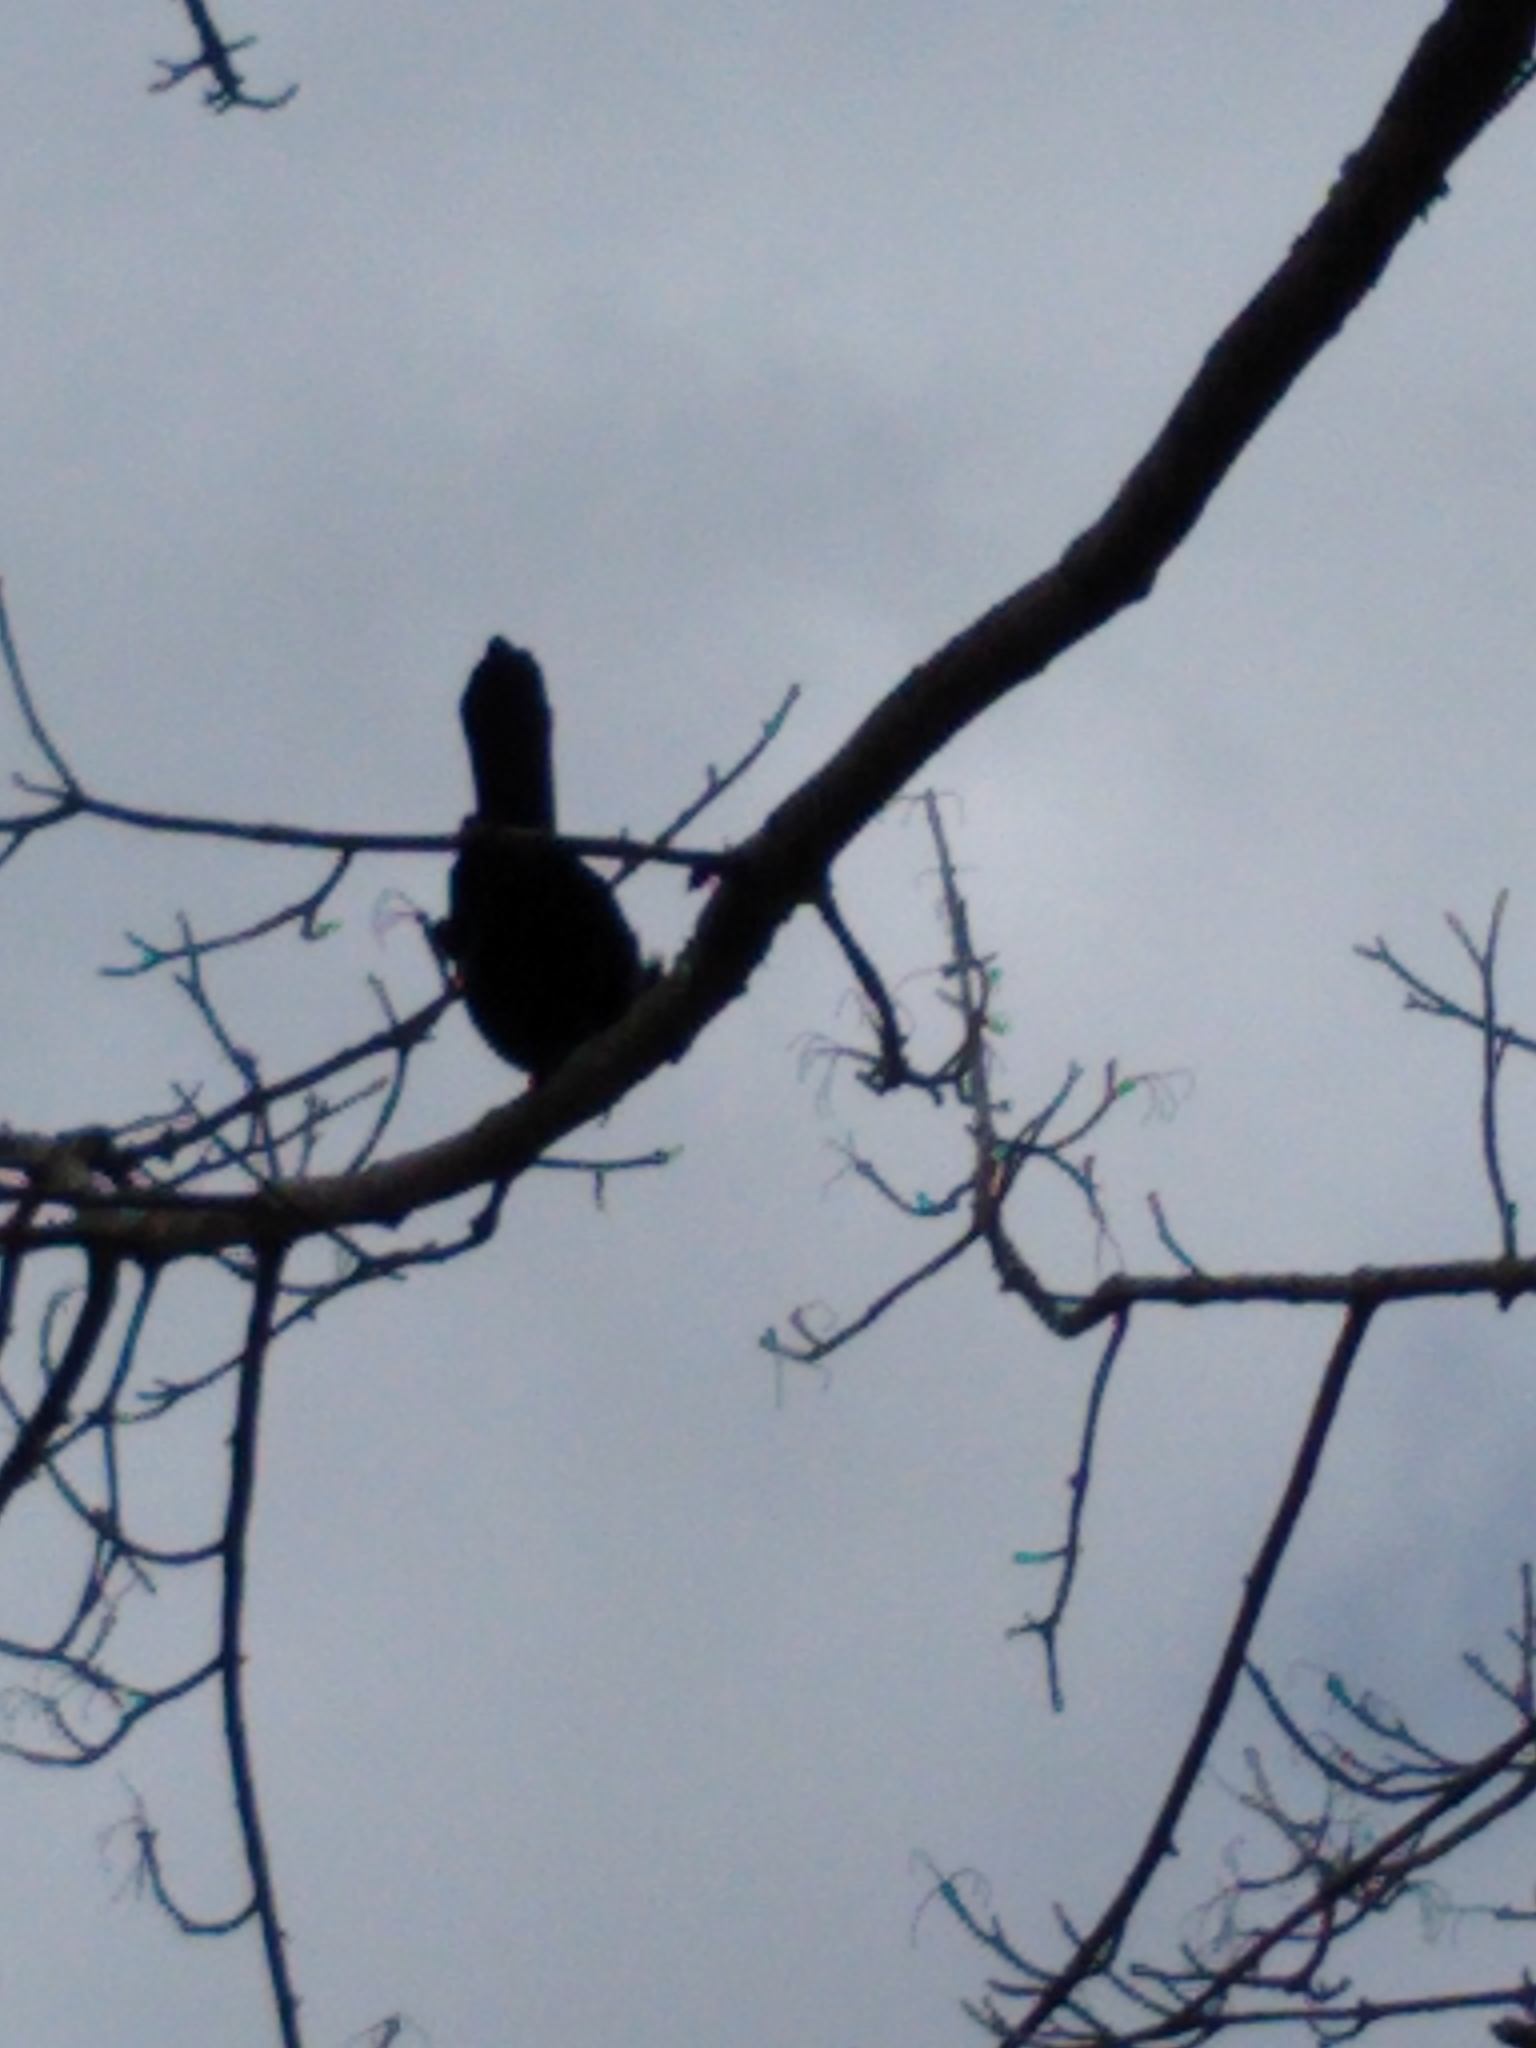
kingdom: Animalia
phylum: Chordata
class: Aves
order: Passeriformes
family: Icteridae
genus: Quiscalus
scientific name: Quiscalus quiscula
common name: Common grackle
